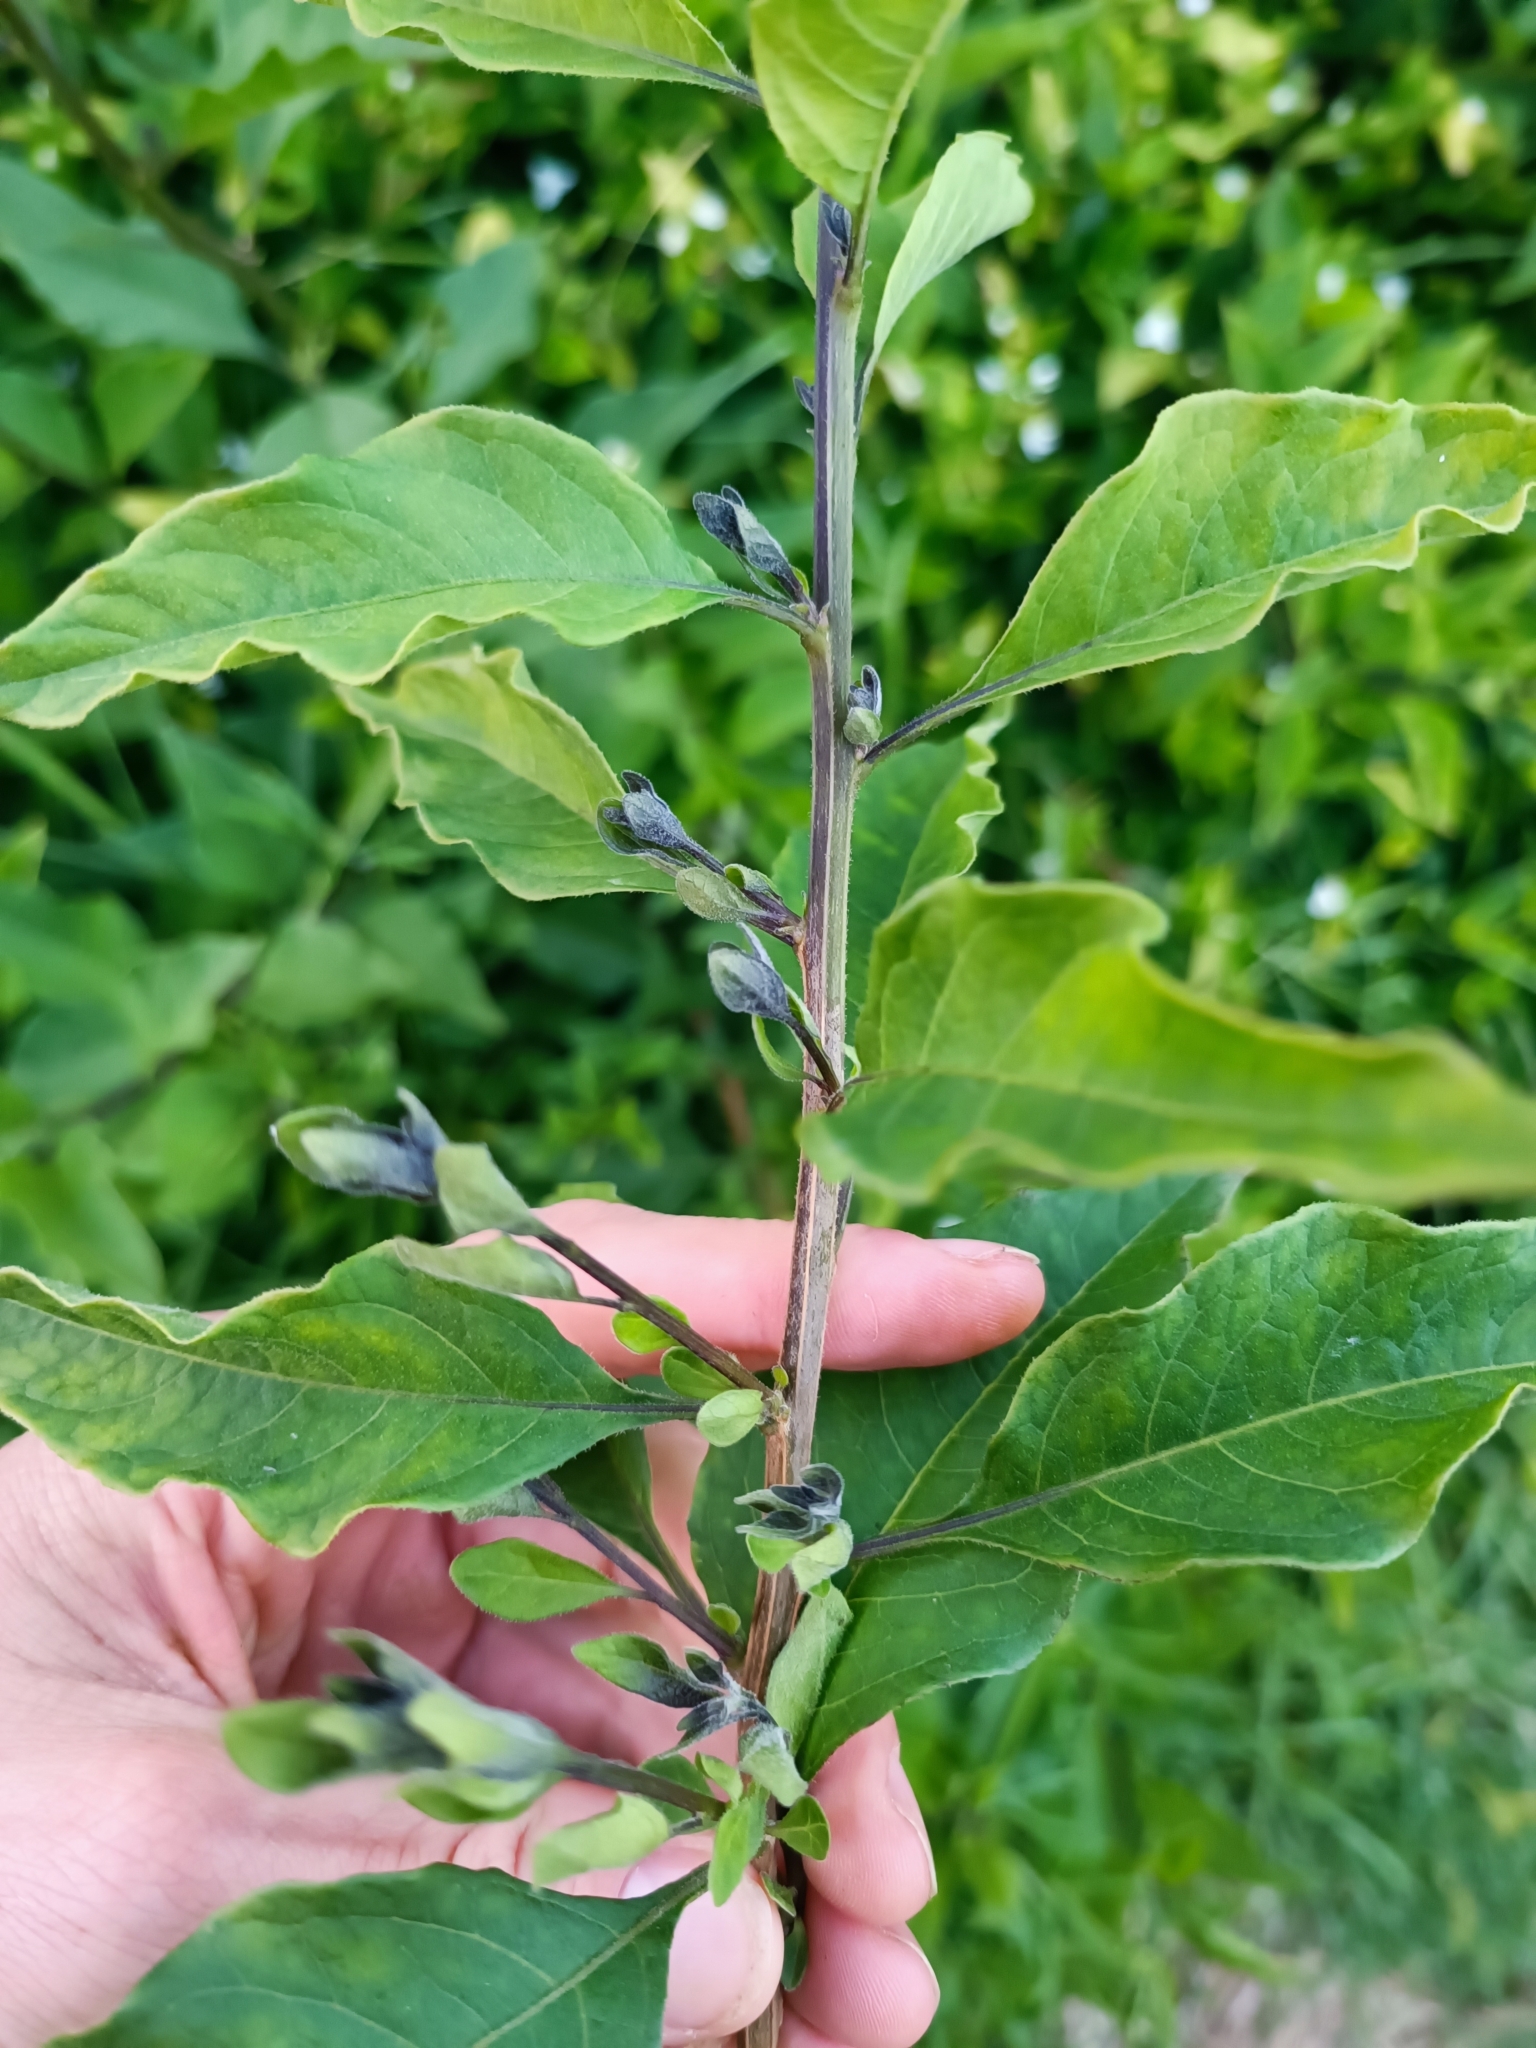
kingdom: Plantae
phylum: Tracheophyta
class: Magnoliopsida
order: Solanales
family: Solanaceae
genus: Lycianthes
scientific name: Lycianthes rantonnetii
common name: Blue potatobush
